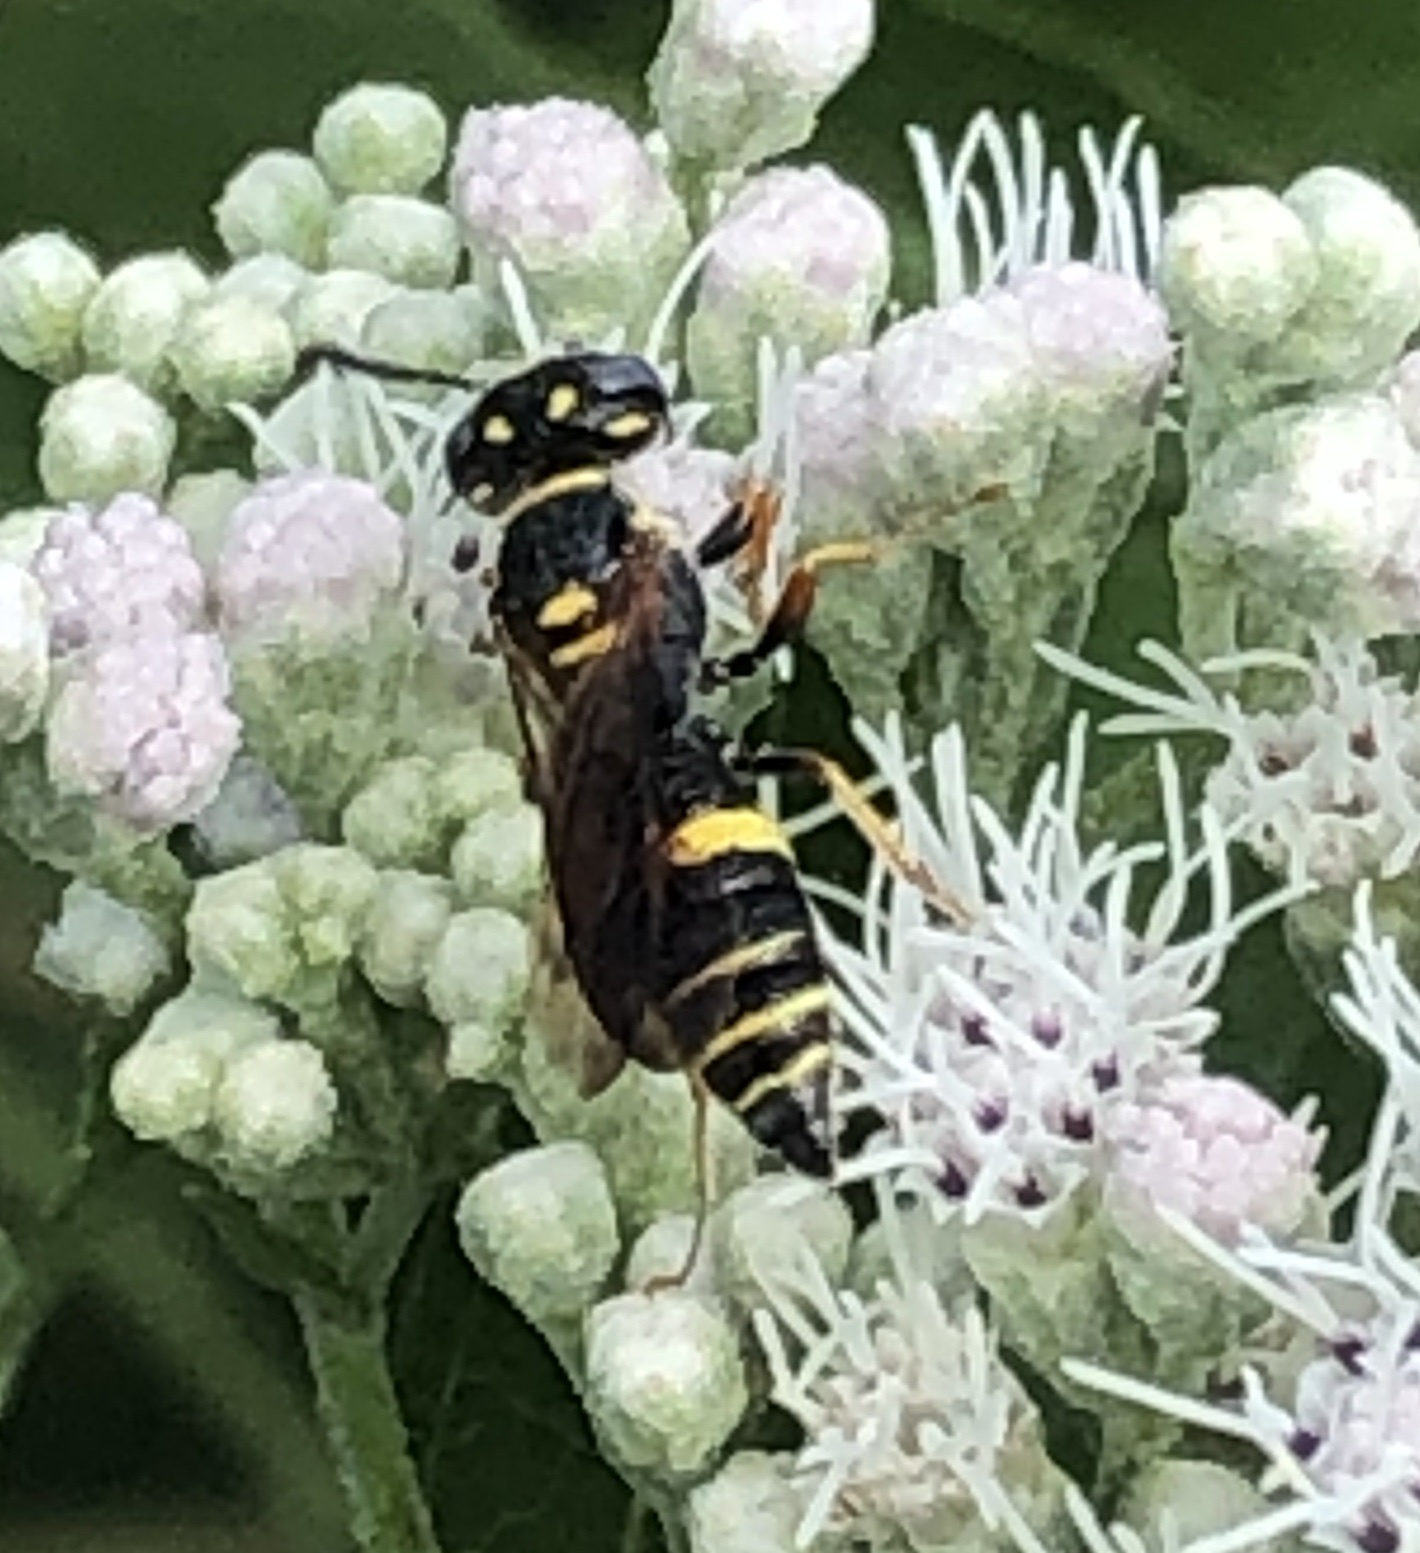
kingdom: Animalia
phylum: Arthropoda
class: Insecta
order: Hymenoptera
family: Crabronidae
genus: Philanthus
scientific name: Philanthus gibbosus
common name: Humped beewolf
